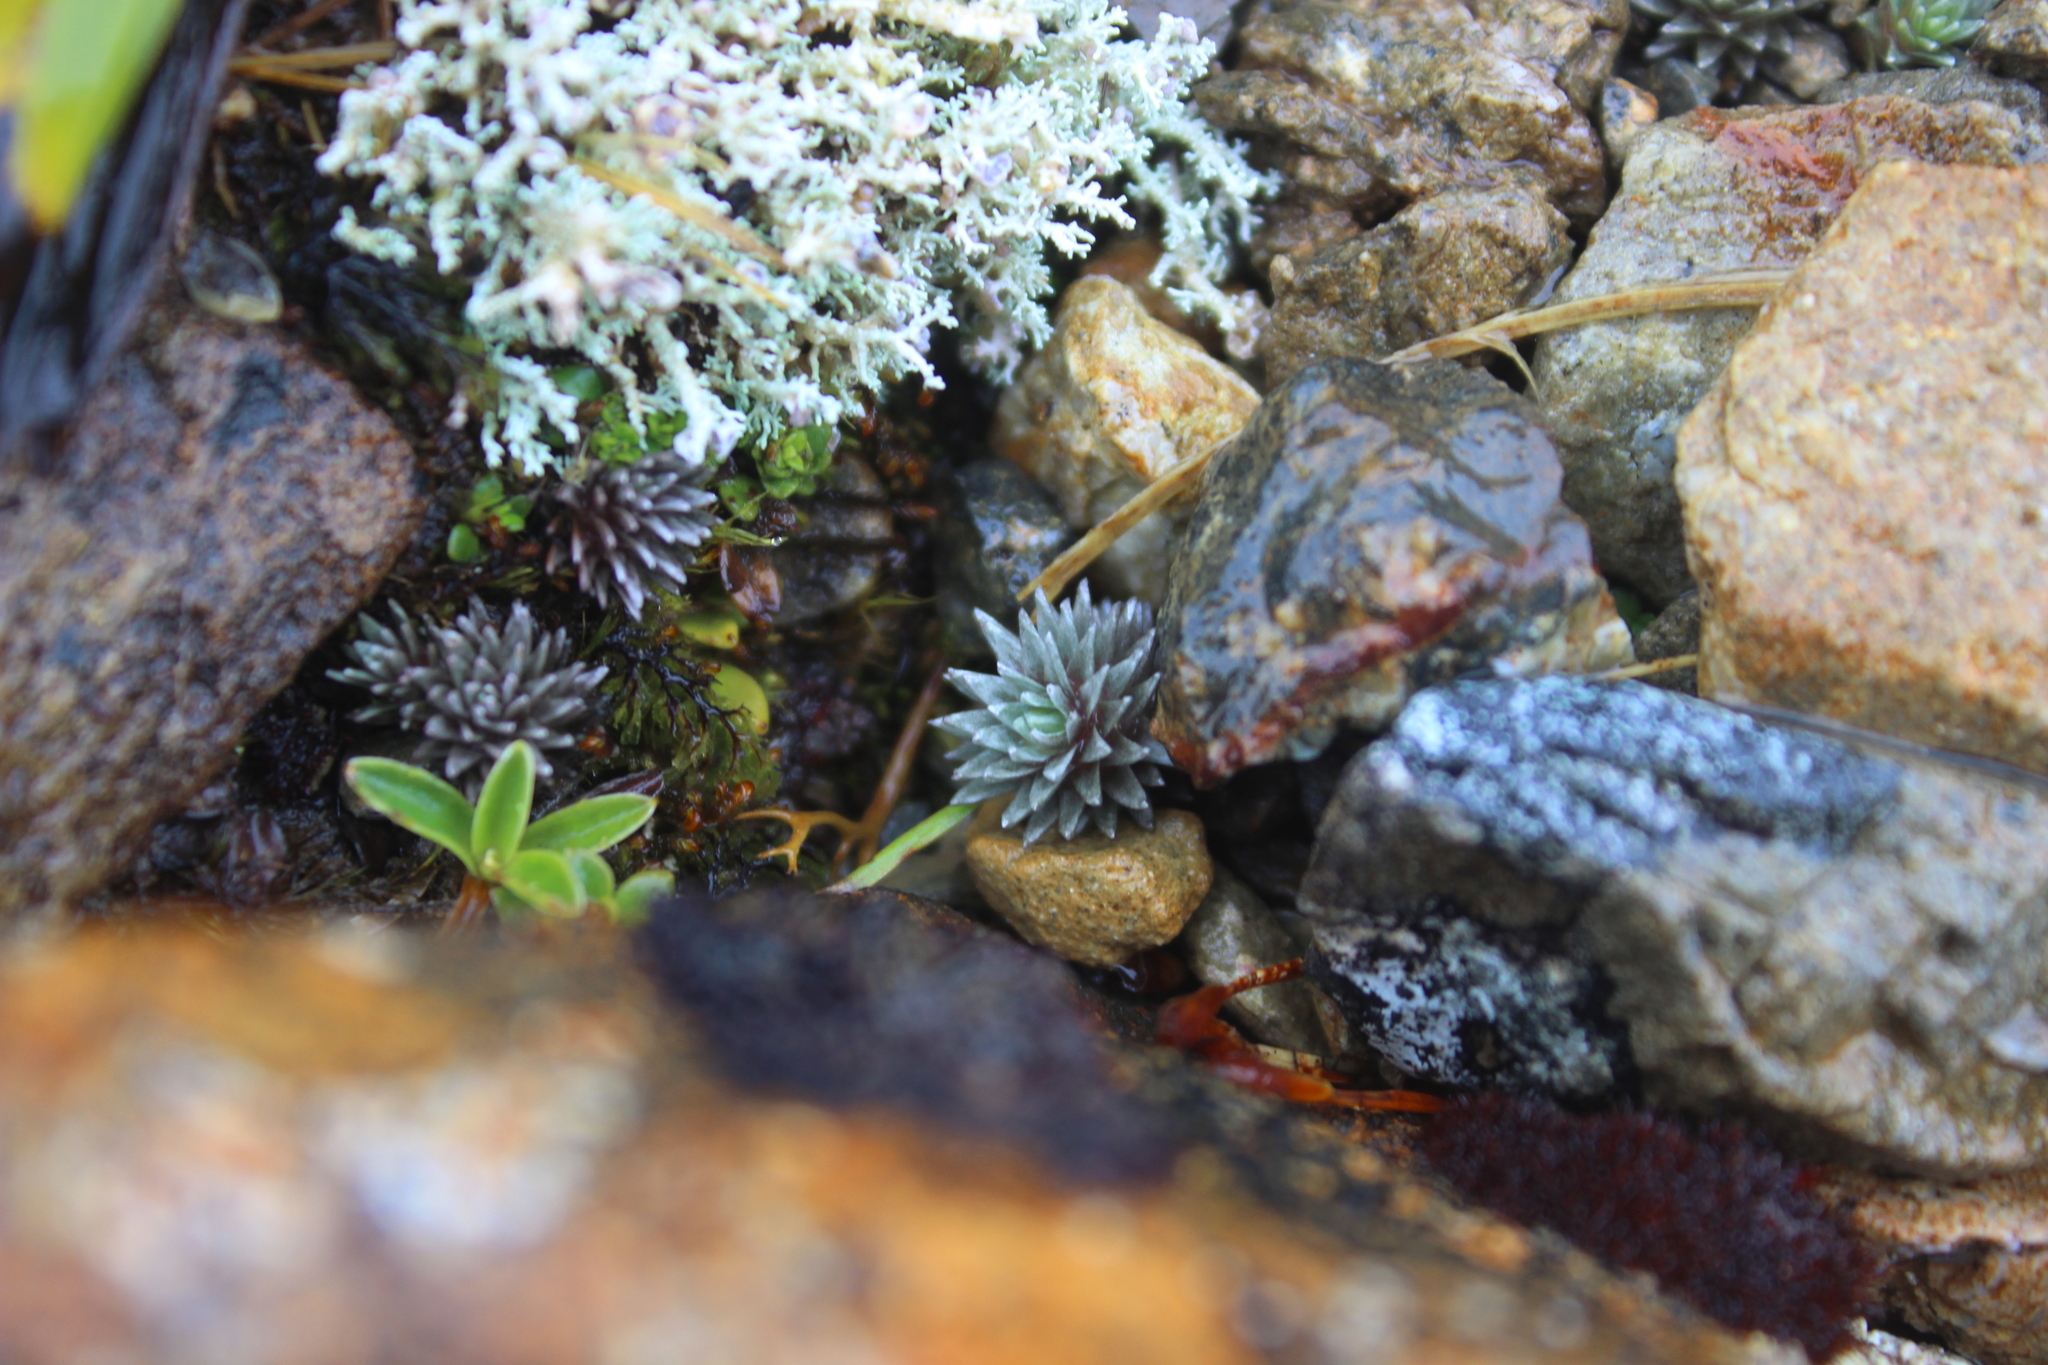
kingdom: Plantae
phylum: Tracheophyta
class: Magnoliopsida
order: Asterales
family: Asteraceae
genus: Raoulia
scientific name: Raoulia grandiflora
